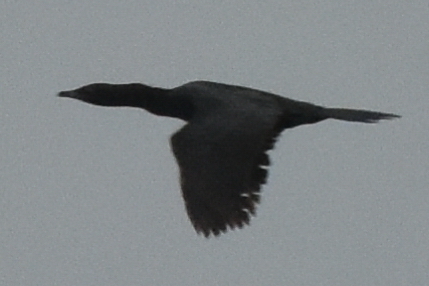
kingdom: Animalia
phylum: Chordata
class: Aves
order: Suliformes
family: Phalacrocoracidae
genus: Microcarbo
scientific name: Microcarbo pygmaeus
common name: Pygmy cormorant
